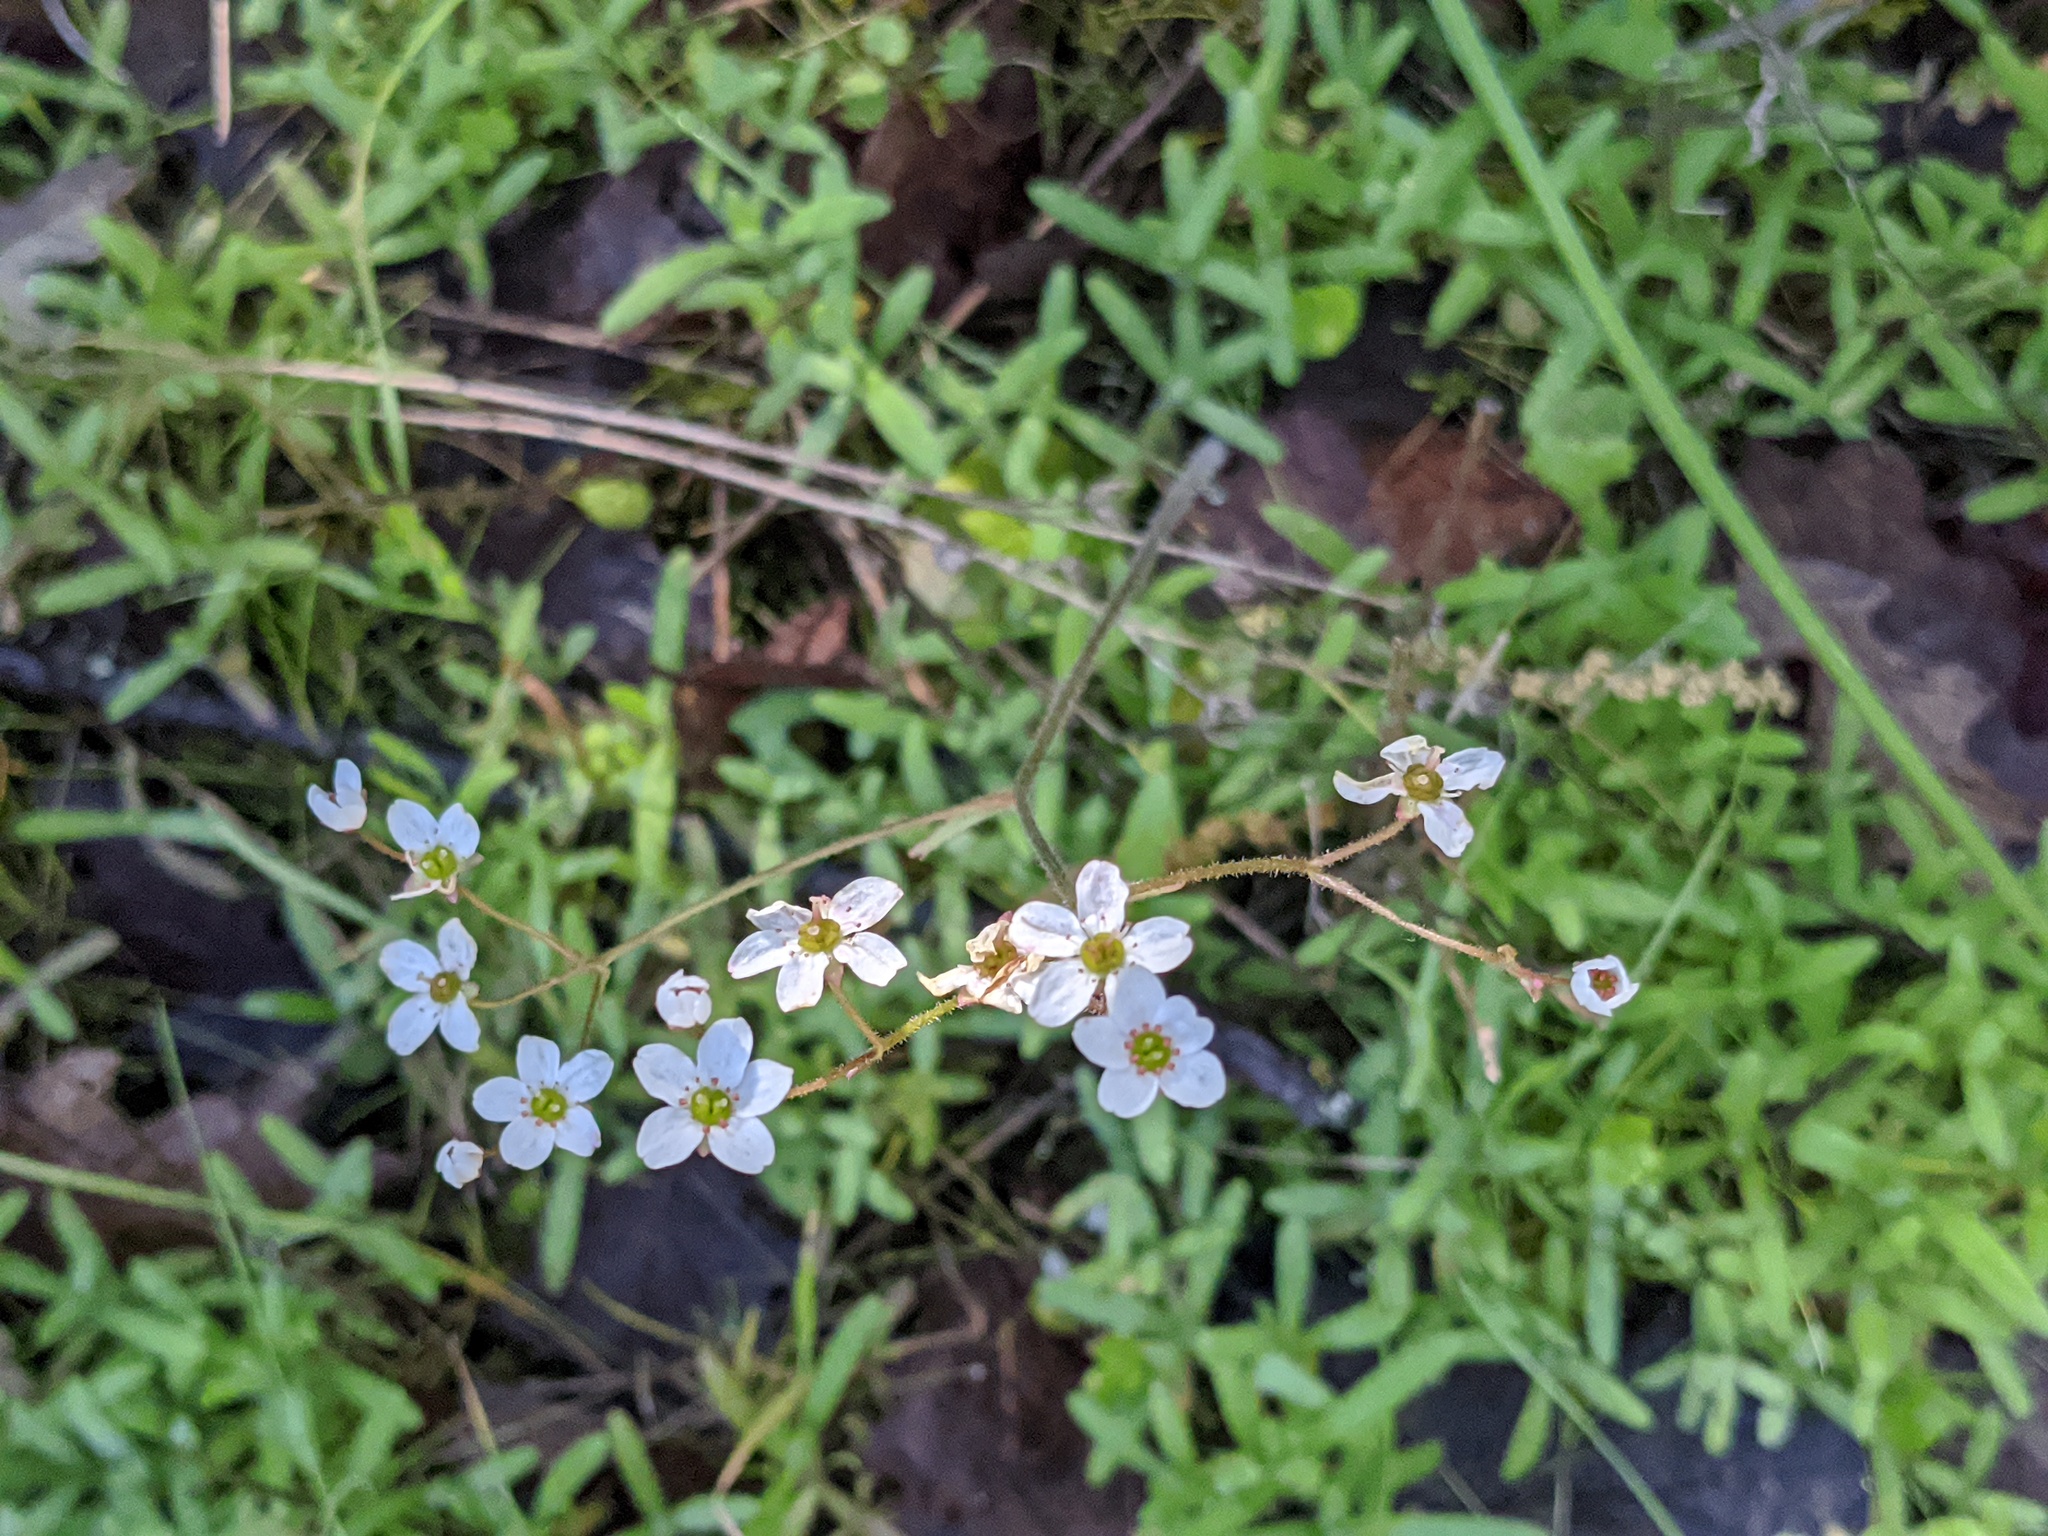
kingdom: Plantae
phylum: Tracheophyta
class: Magnoliopsida
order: Saxifragales
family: Saxifragaceae
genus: Micranthes
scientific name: Micranthes californica
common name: California saxifrage
